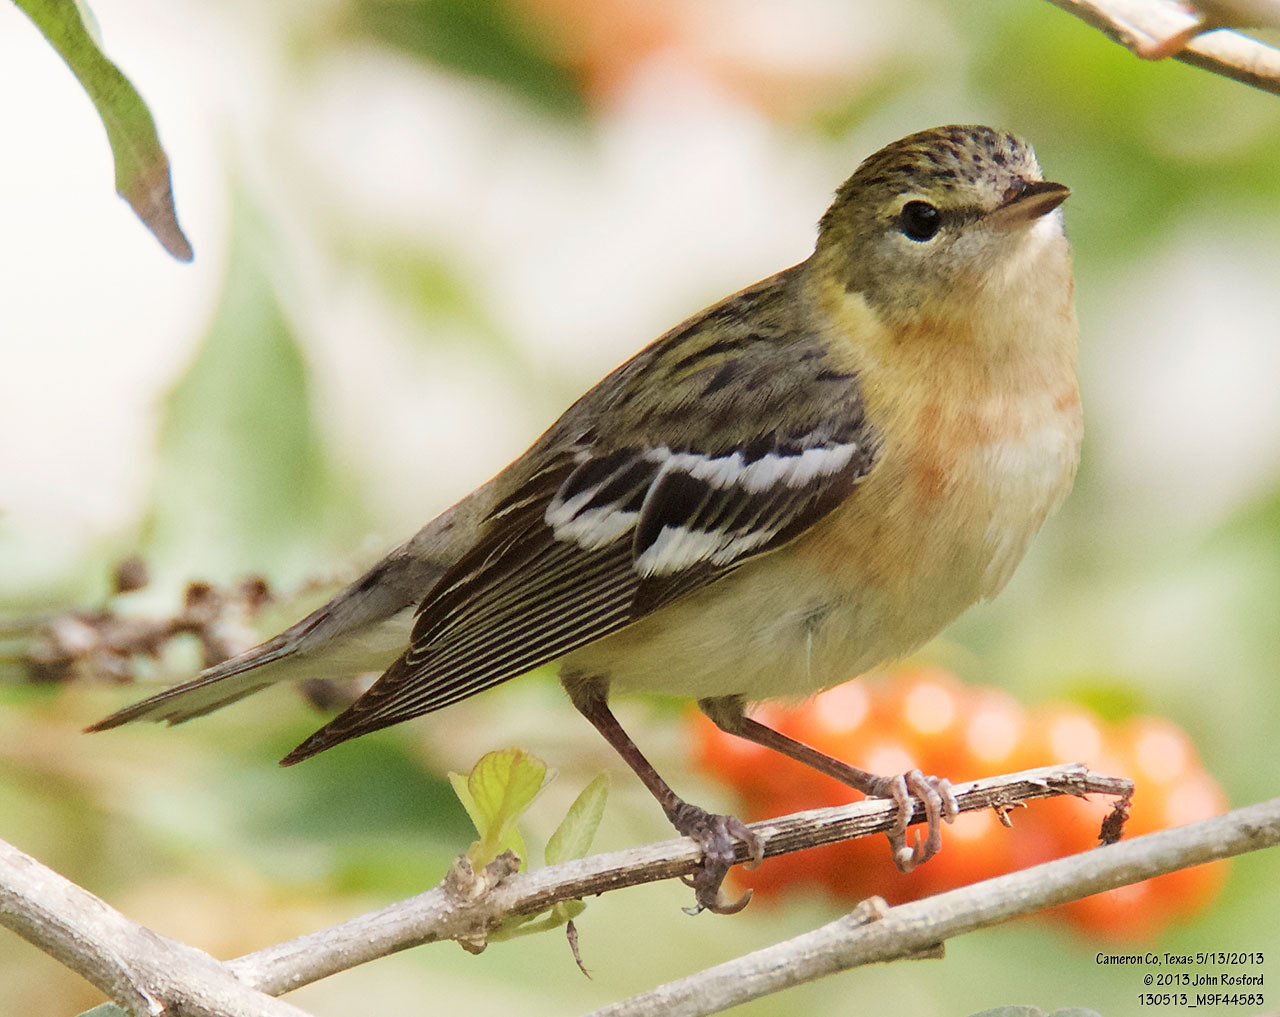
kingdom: Animalia
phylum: Chordata
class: Aves
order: Passeriformes
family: Parulidae
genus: Setophaga
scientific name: Setophaga castanea
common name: Bay-breasted warbler
